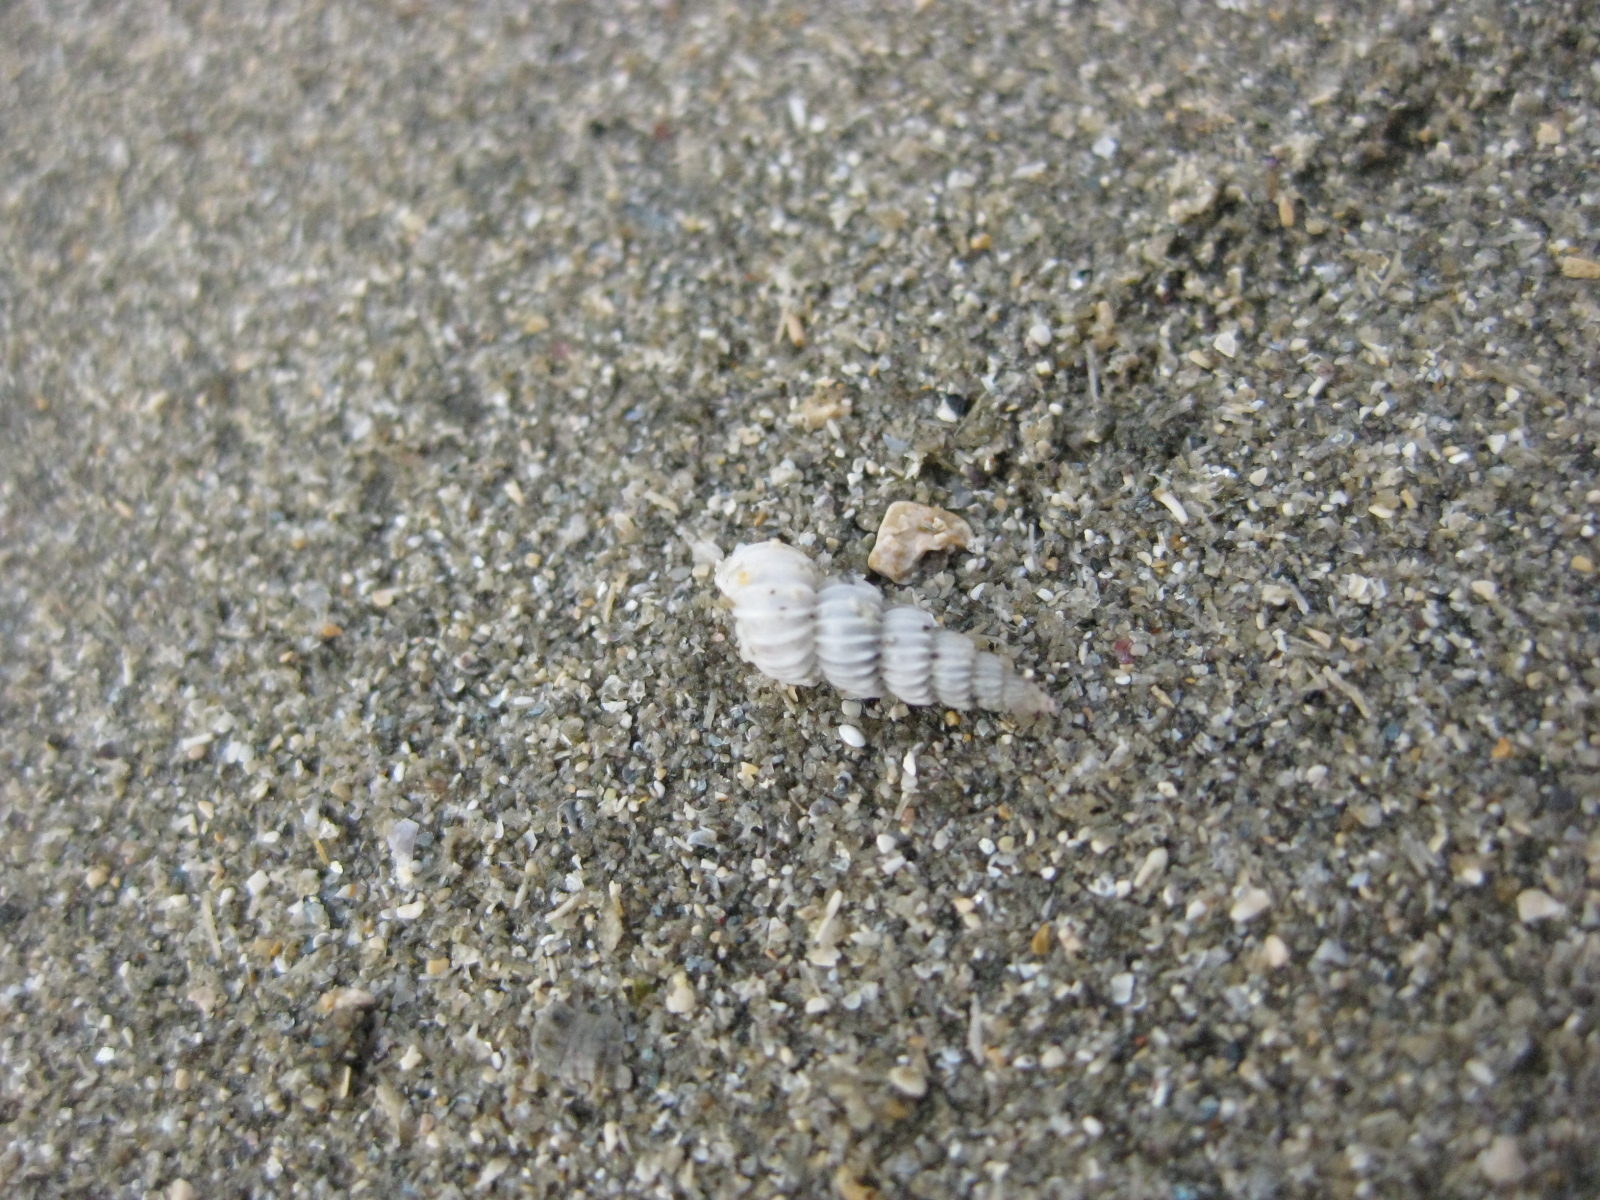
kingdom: Animalia
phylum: Mollusca
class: Gastropoda
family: Epitoniidae
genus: Epitonium
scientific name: Epitonium jukesianum
